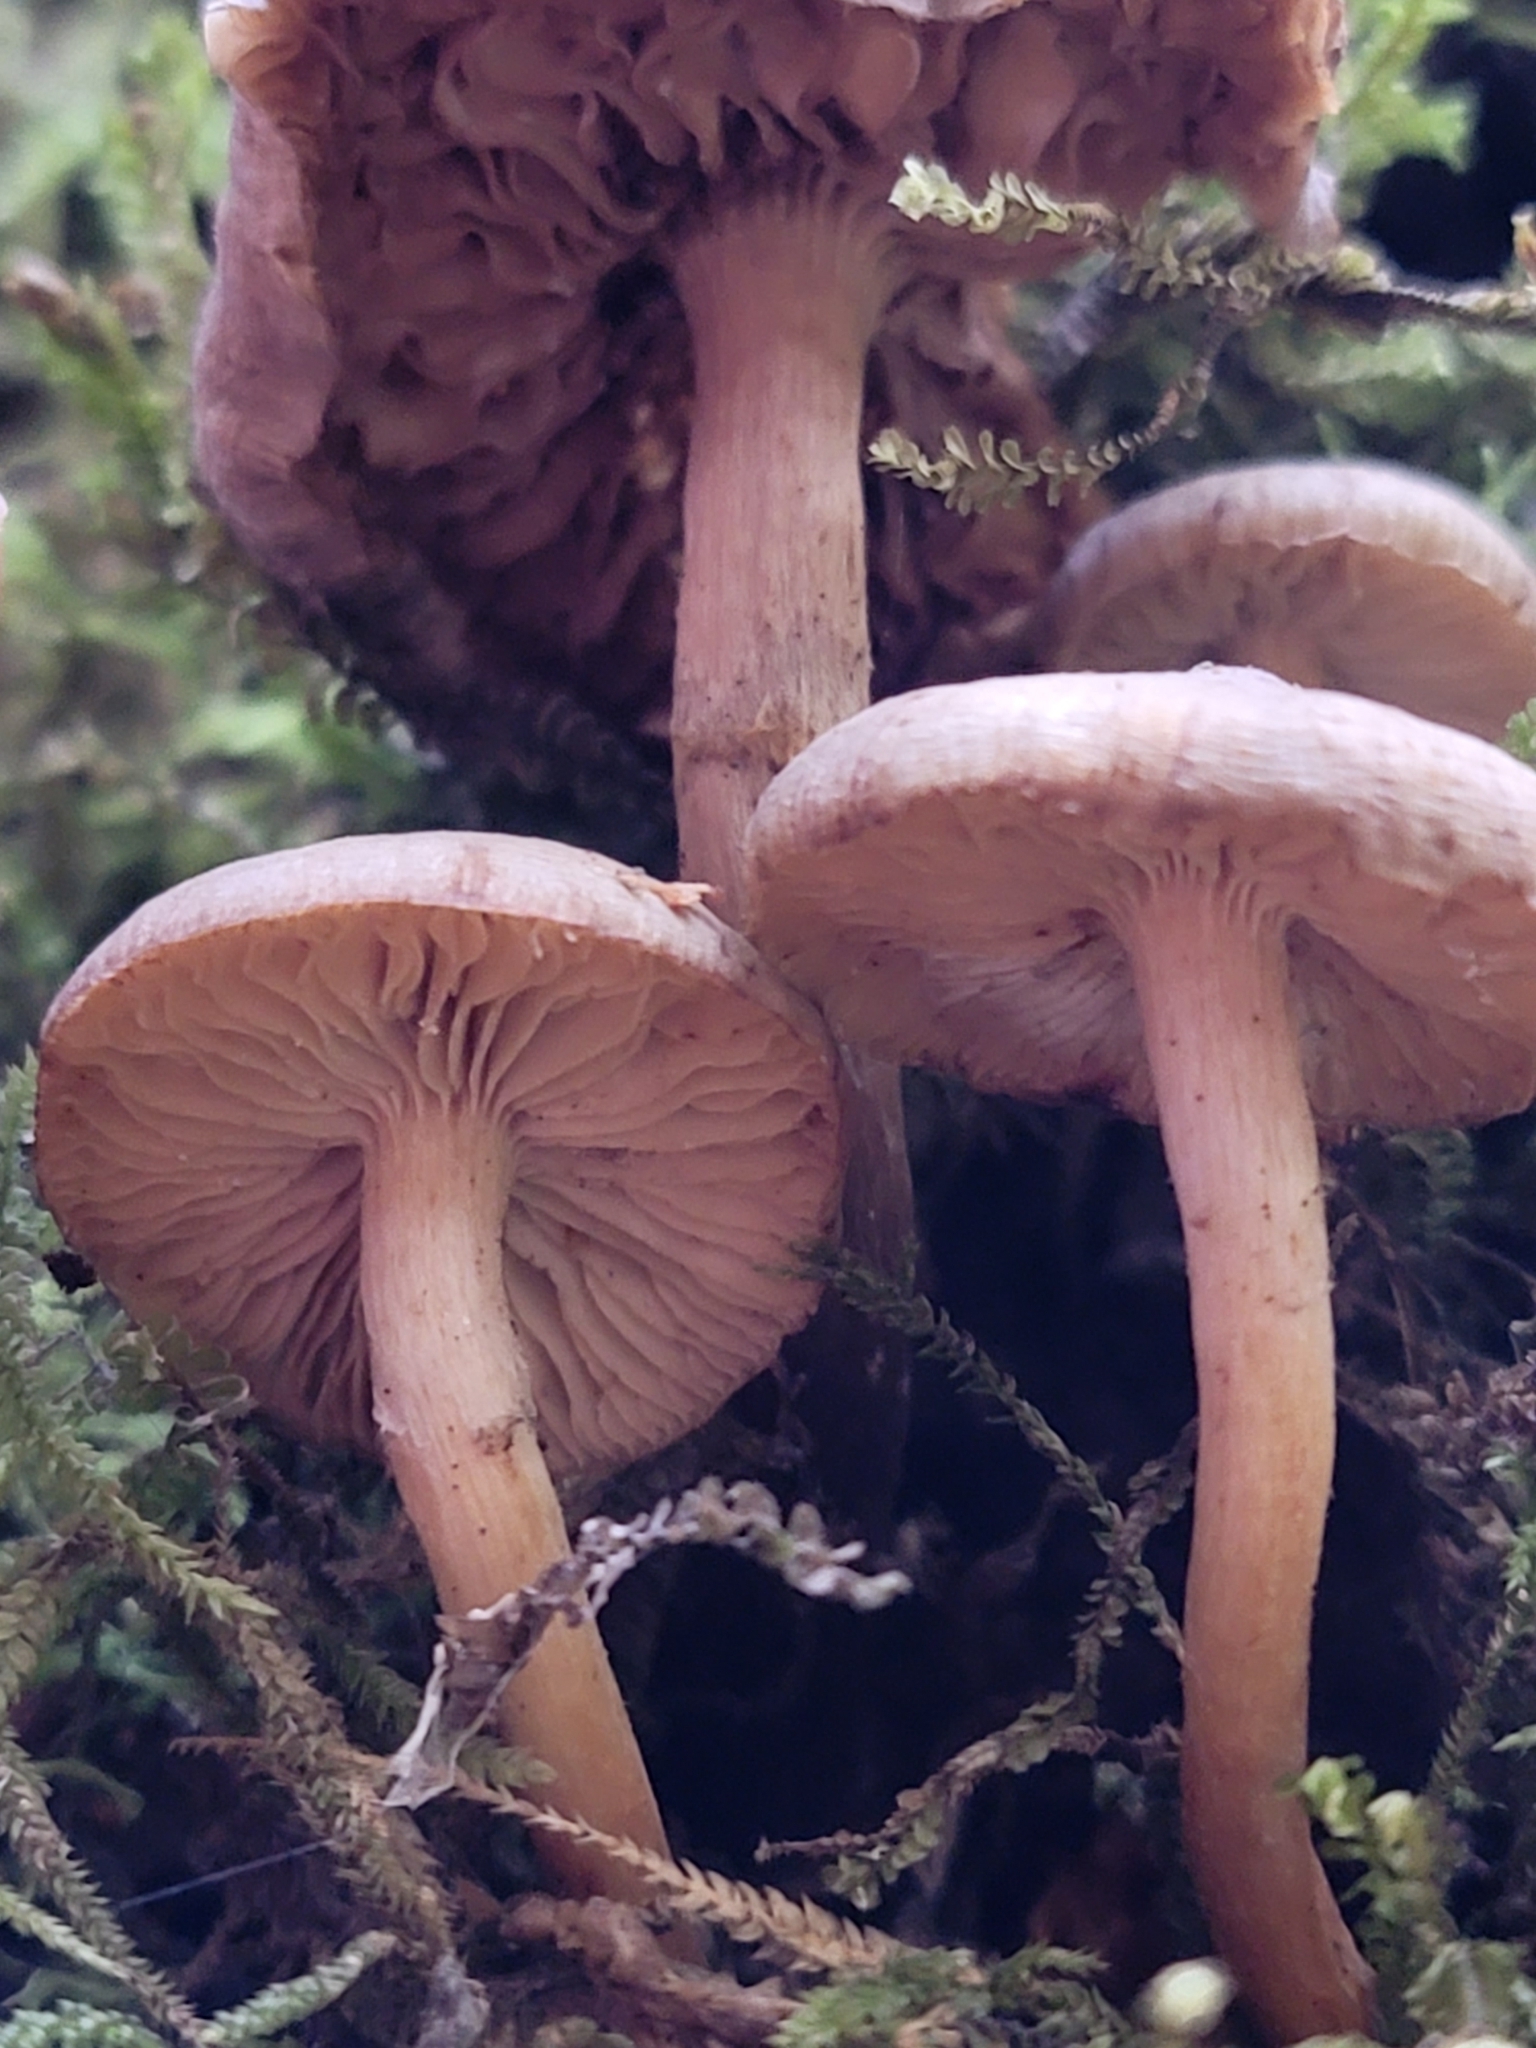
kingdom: Fungi
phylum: Basidiomycota
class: Agaricomycetes
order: Agaricales
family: Physalacriaceae
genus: Armillaria
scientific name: Armillaria novae-zelandiae
